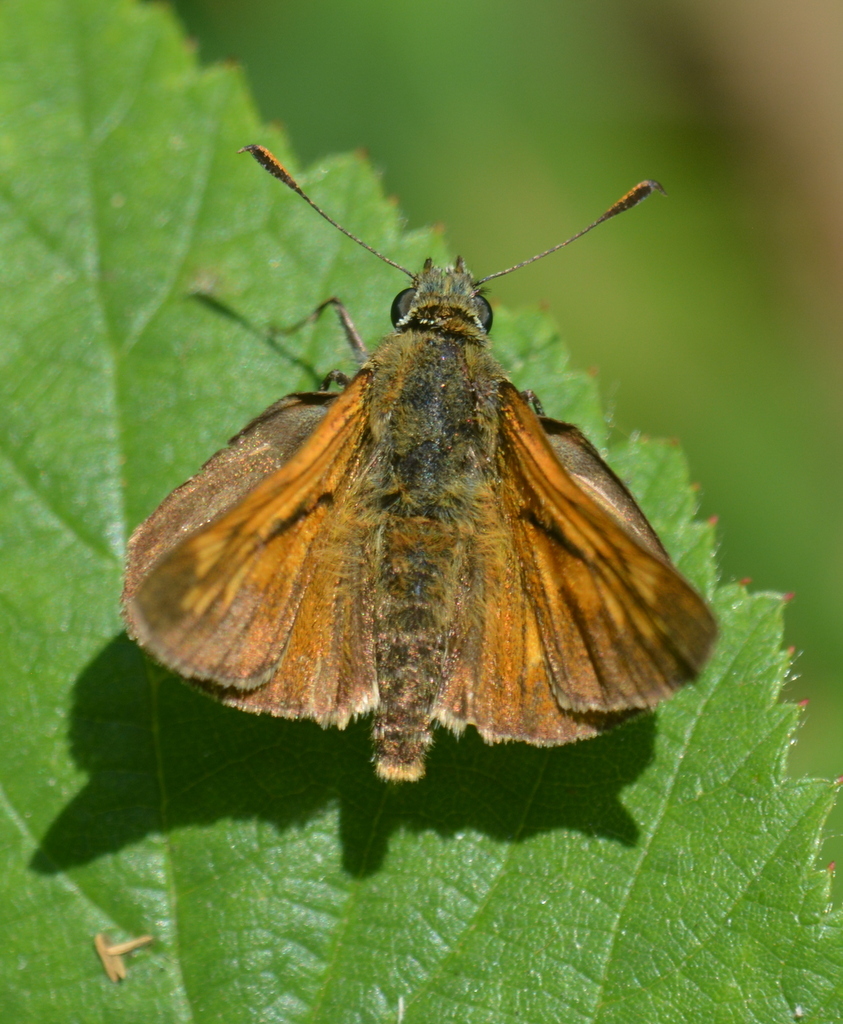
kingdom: Animalia
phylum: Arthropoda
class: Insecta
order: Lepidoptera
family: Hesperiidae
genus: Ochlodes
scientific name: Ochlodes venata
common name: Large skipper
